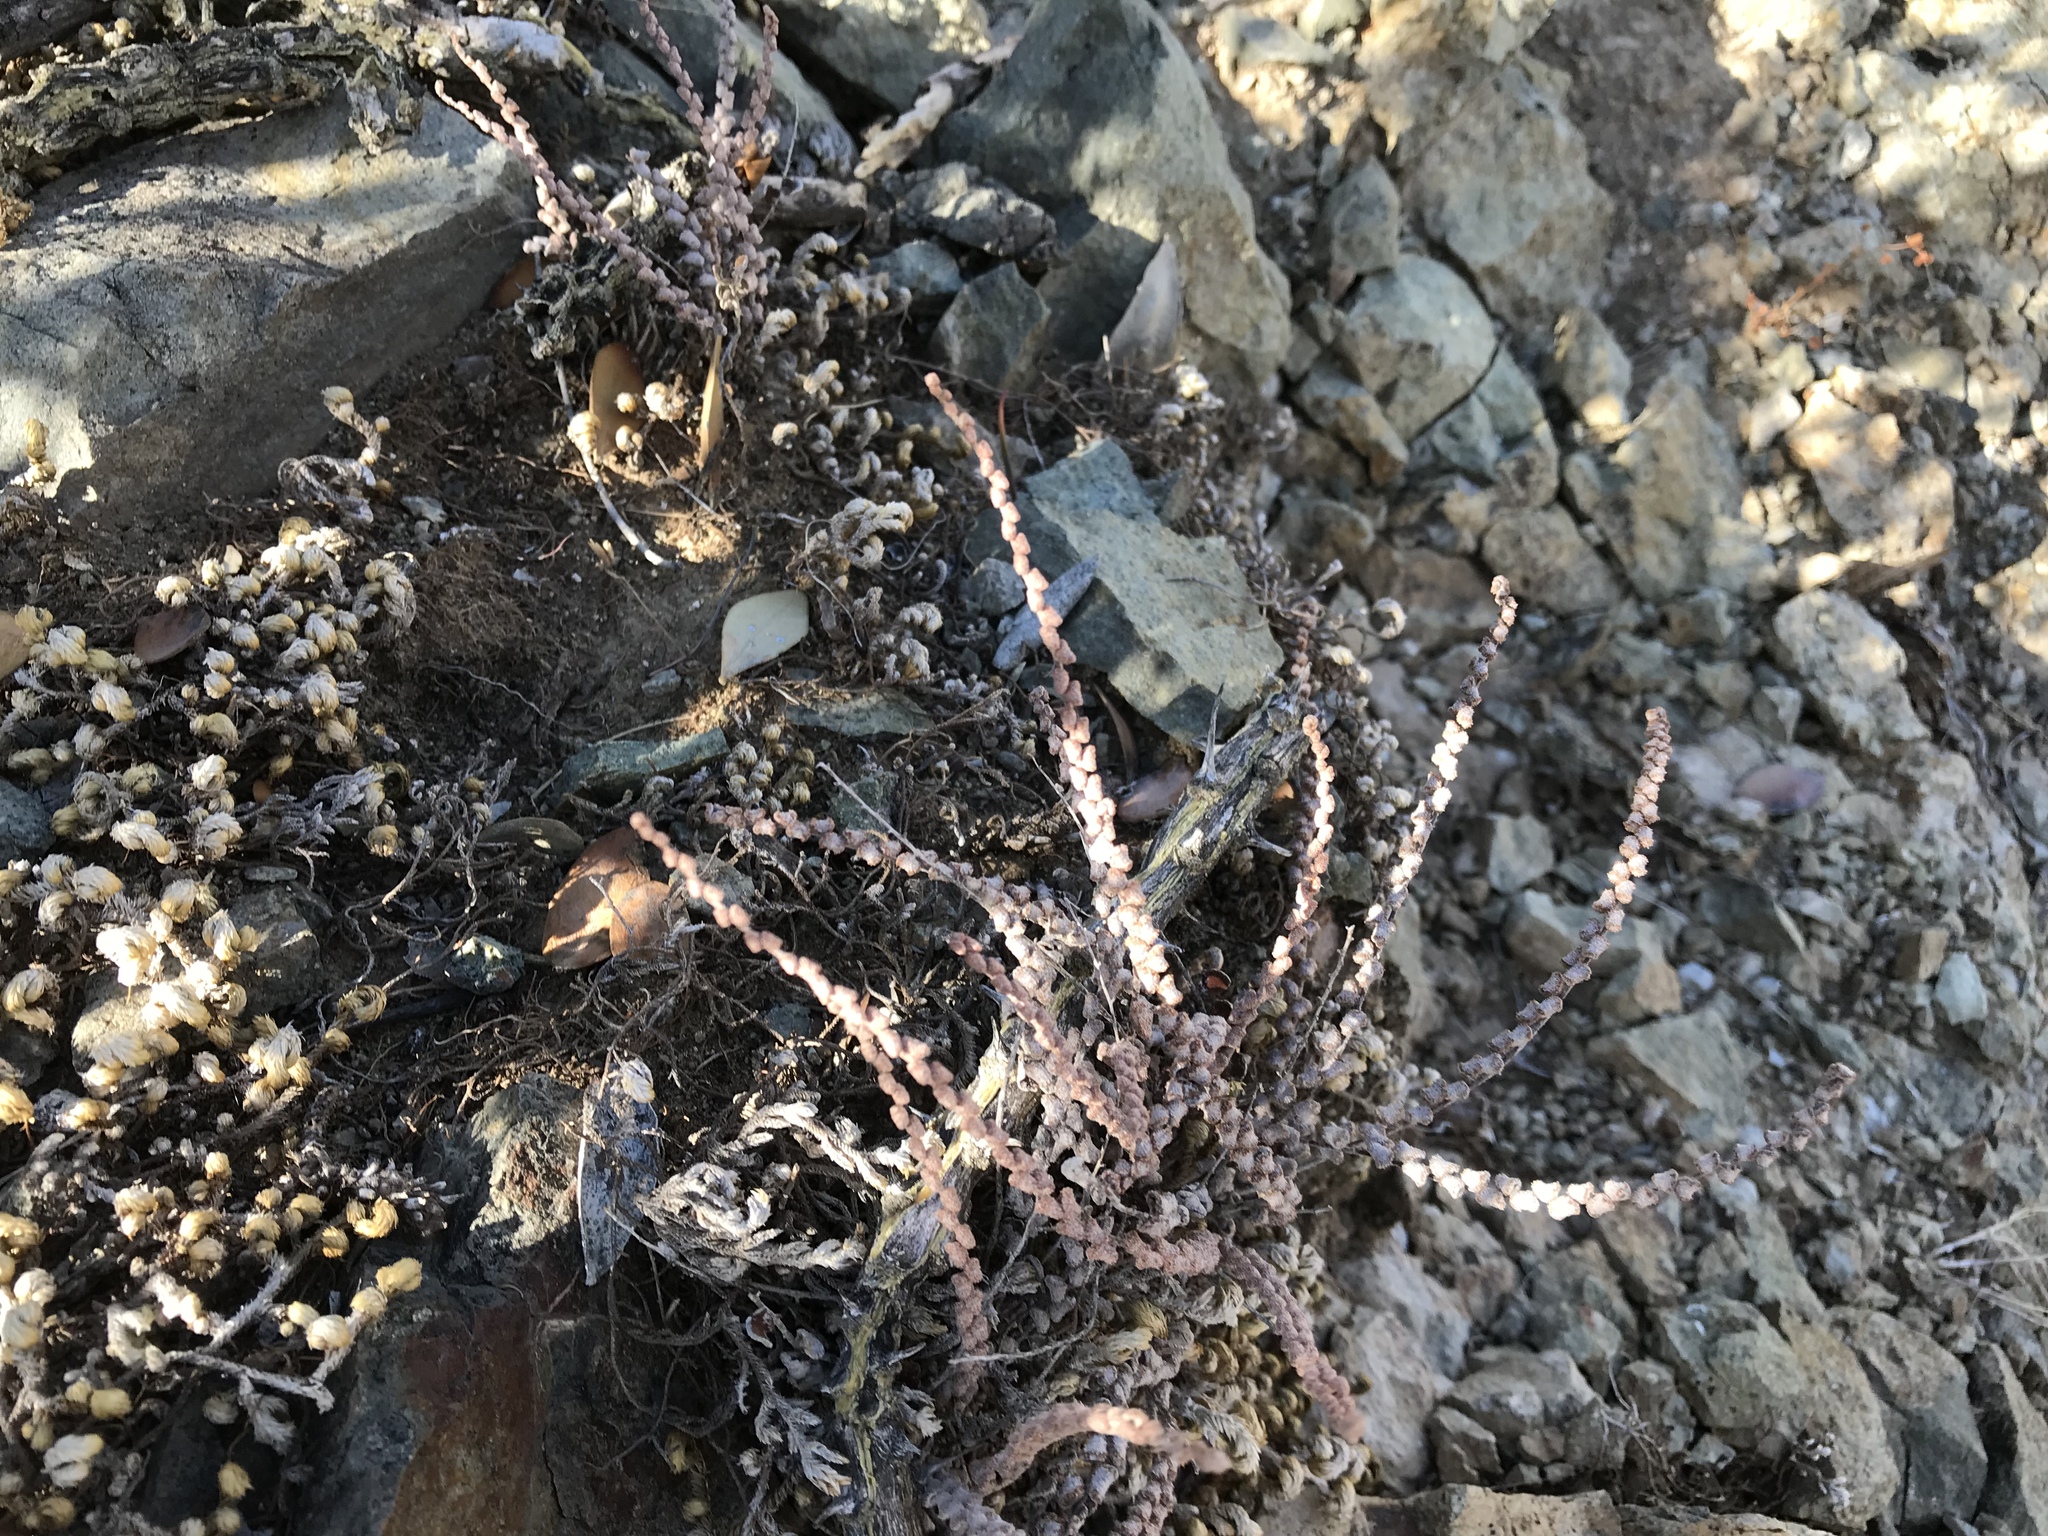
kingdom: Plantae
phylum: Tracheophyta
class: Polypodiopsida
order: Polypodiales
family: Pteridaceae
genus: Astrolepis
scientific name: Astrolepis cochisensis
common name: Scaly cloak fern
